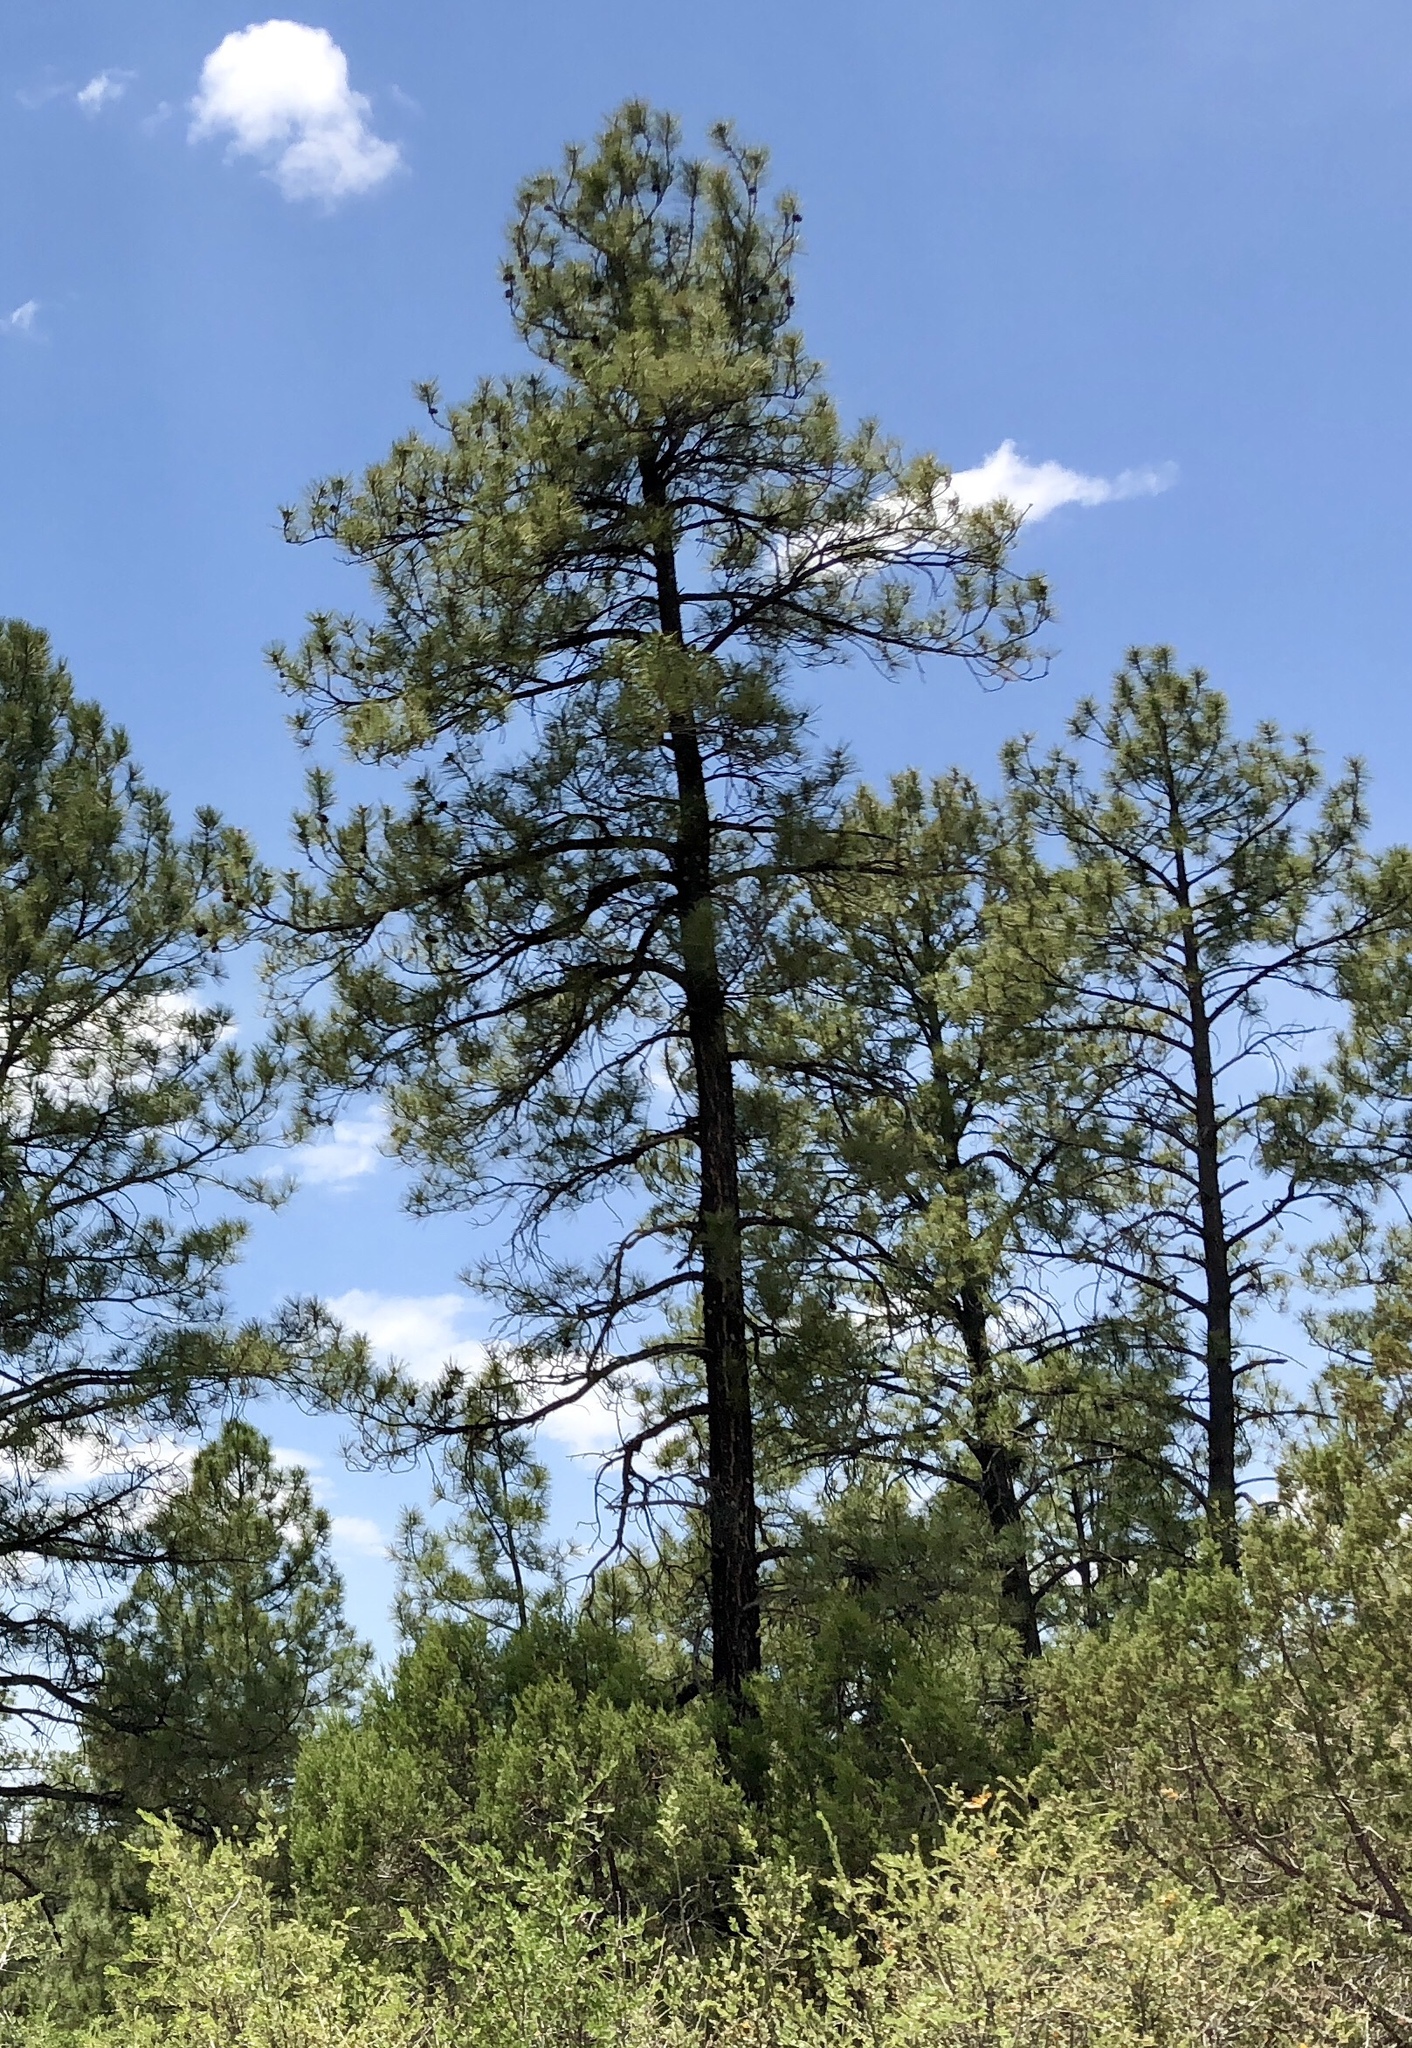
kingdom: Plantae
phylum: Tracheophyta
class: Pinopsida
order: Pinales
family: Pinaceae
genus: Pinus
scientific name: Pinus ponderosa
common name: Western yellow-pine
